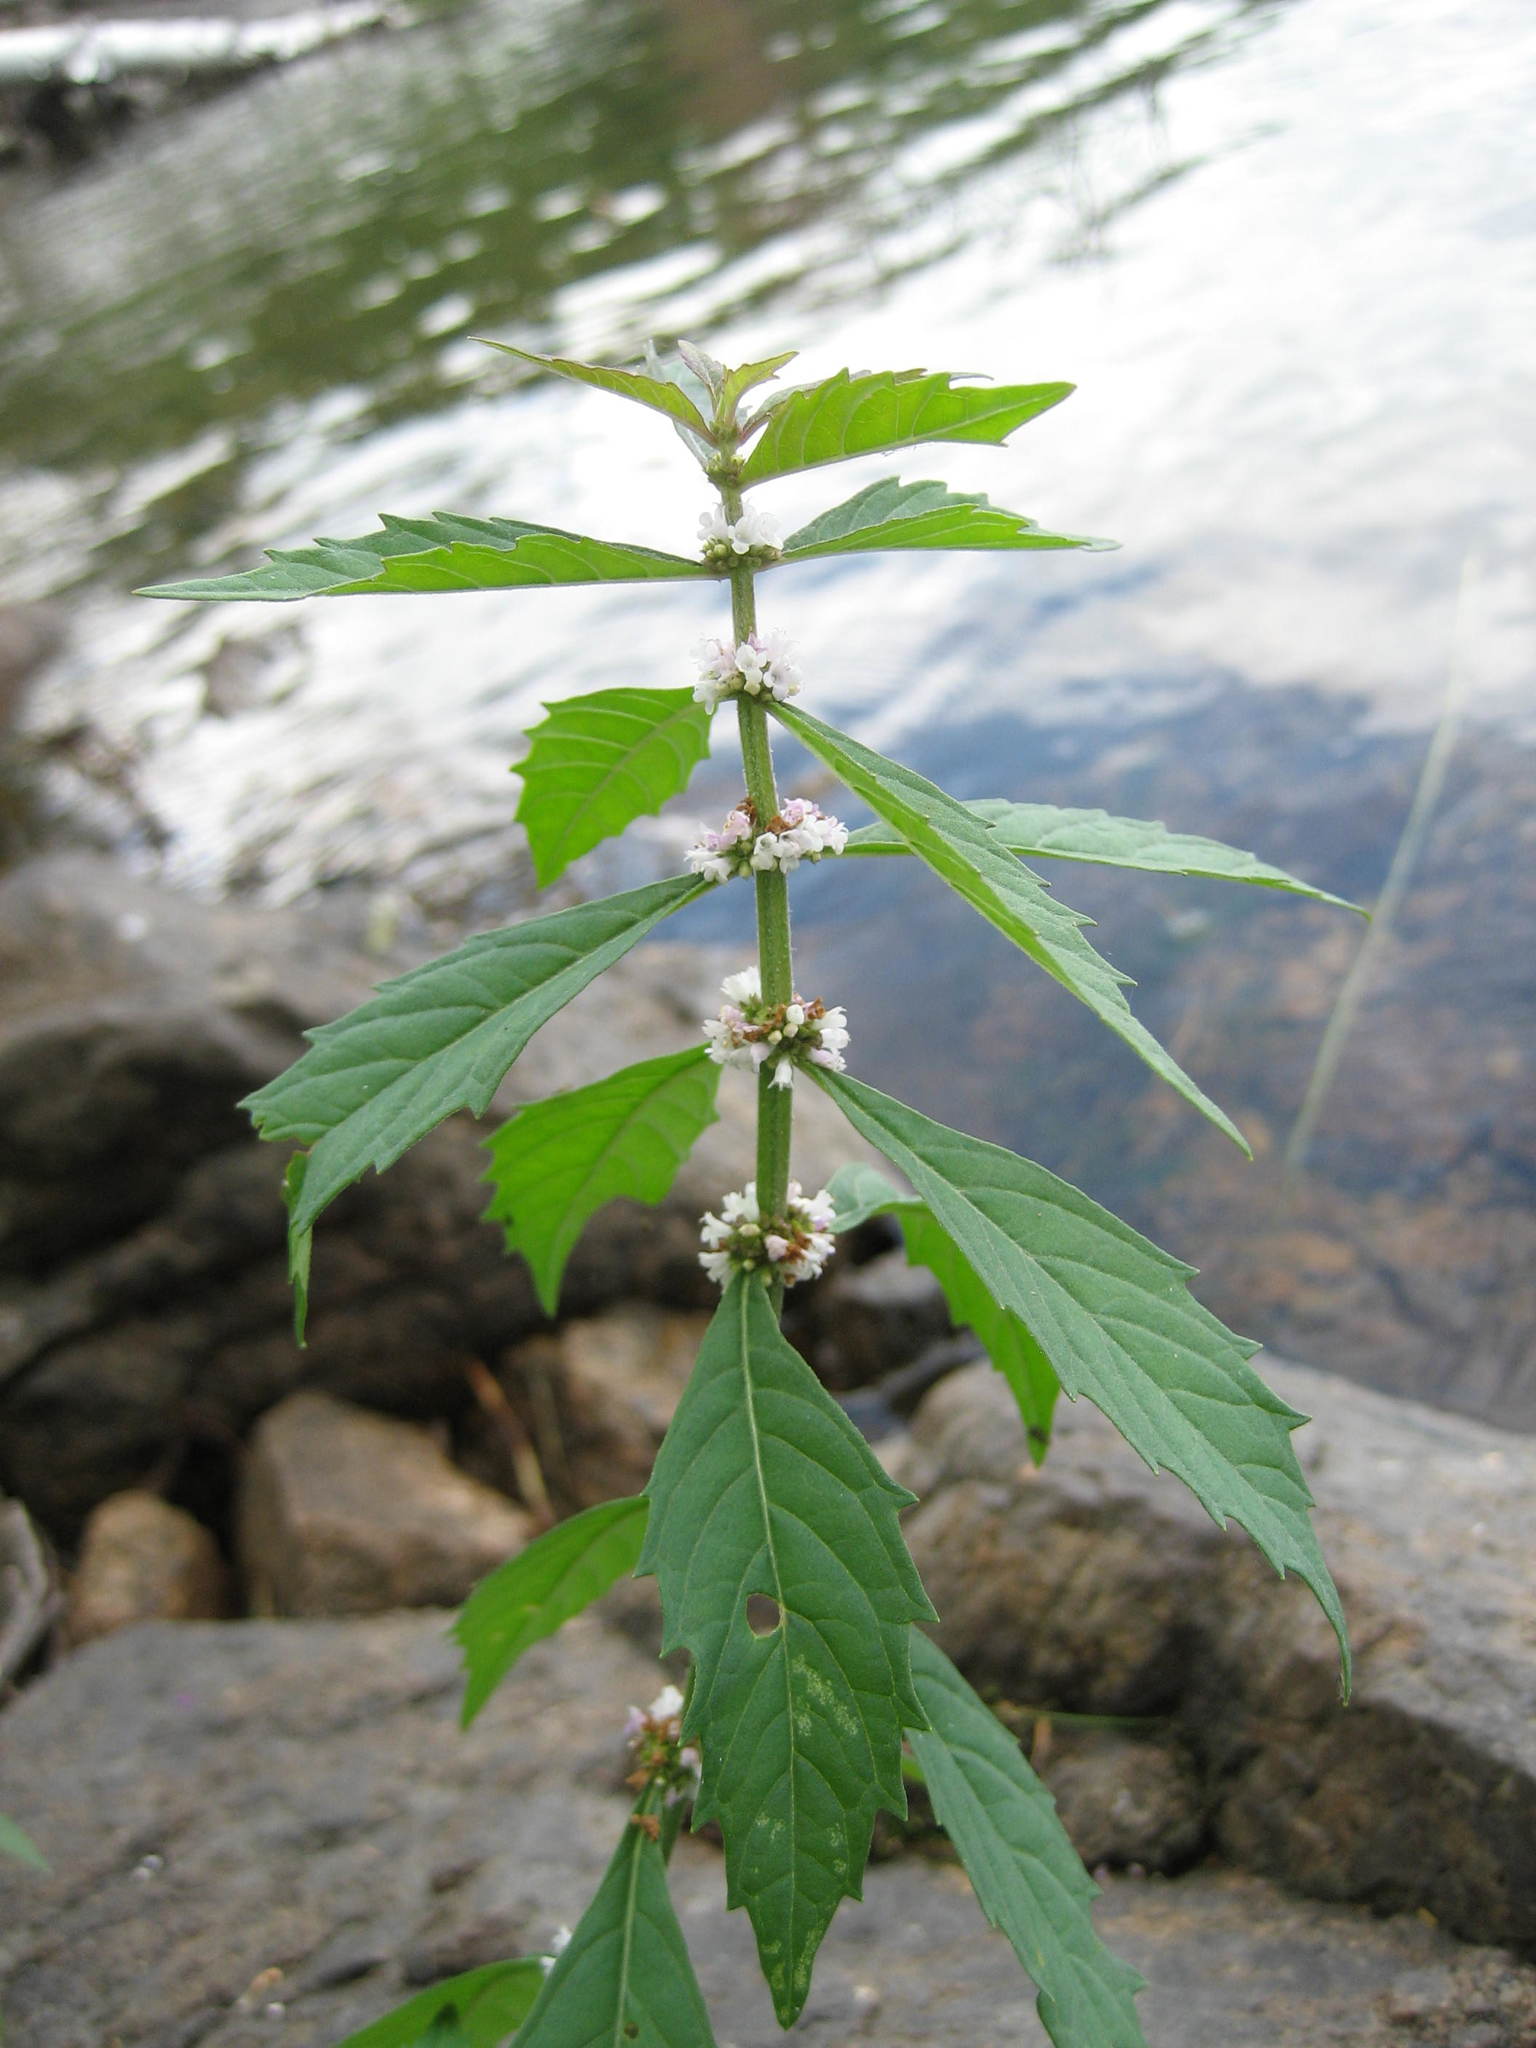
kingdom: Plantae
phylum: Tracheophyta
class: Magnoliopsida
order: Lamiales
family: Lamiaceae
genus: Lycopus
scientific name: Lycopus uniflorus
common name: Northern bugleweed
